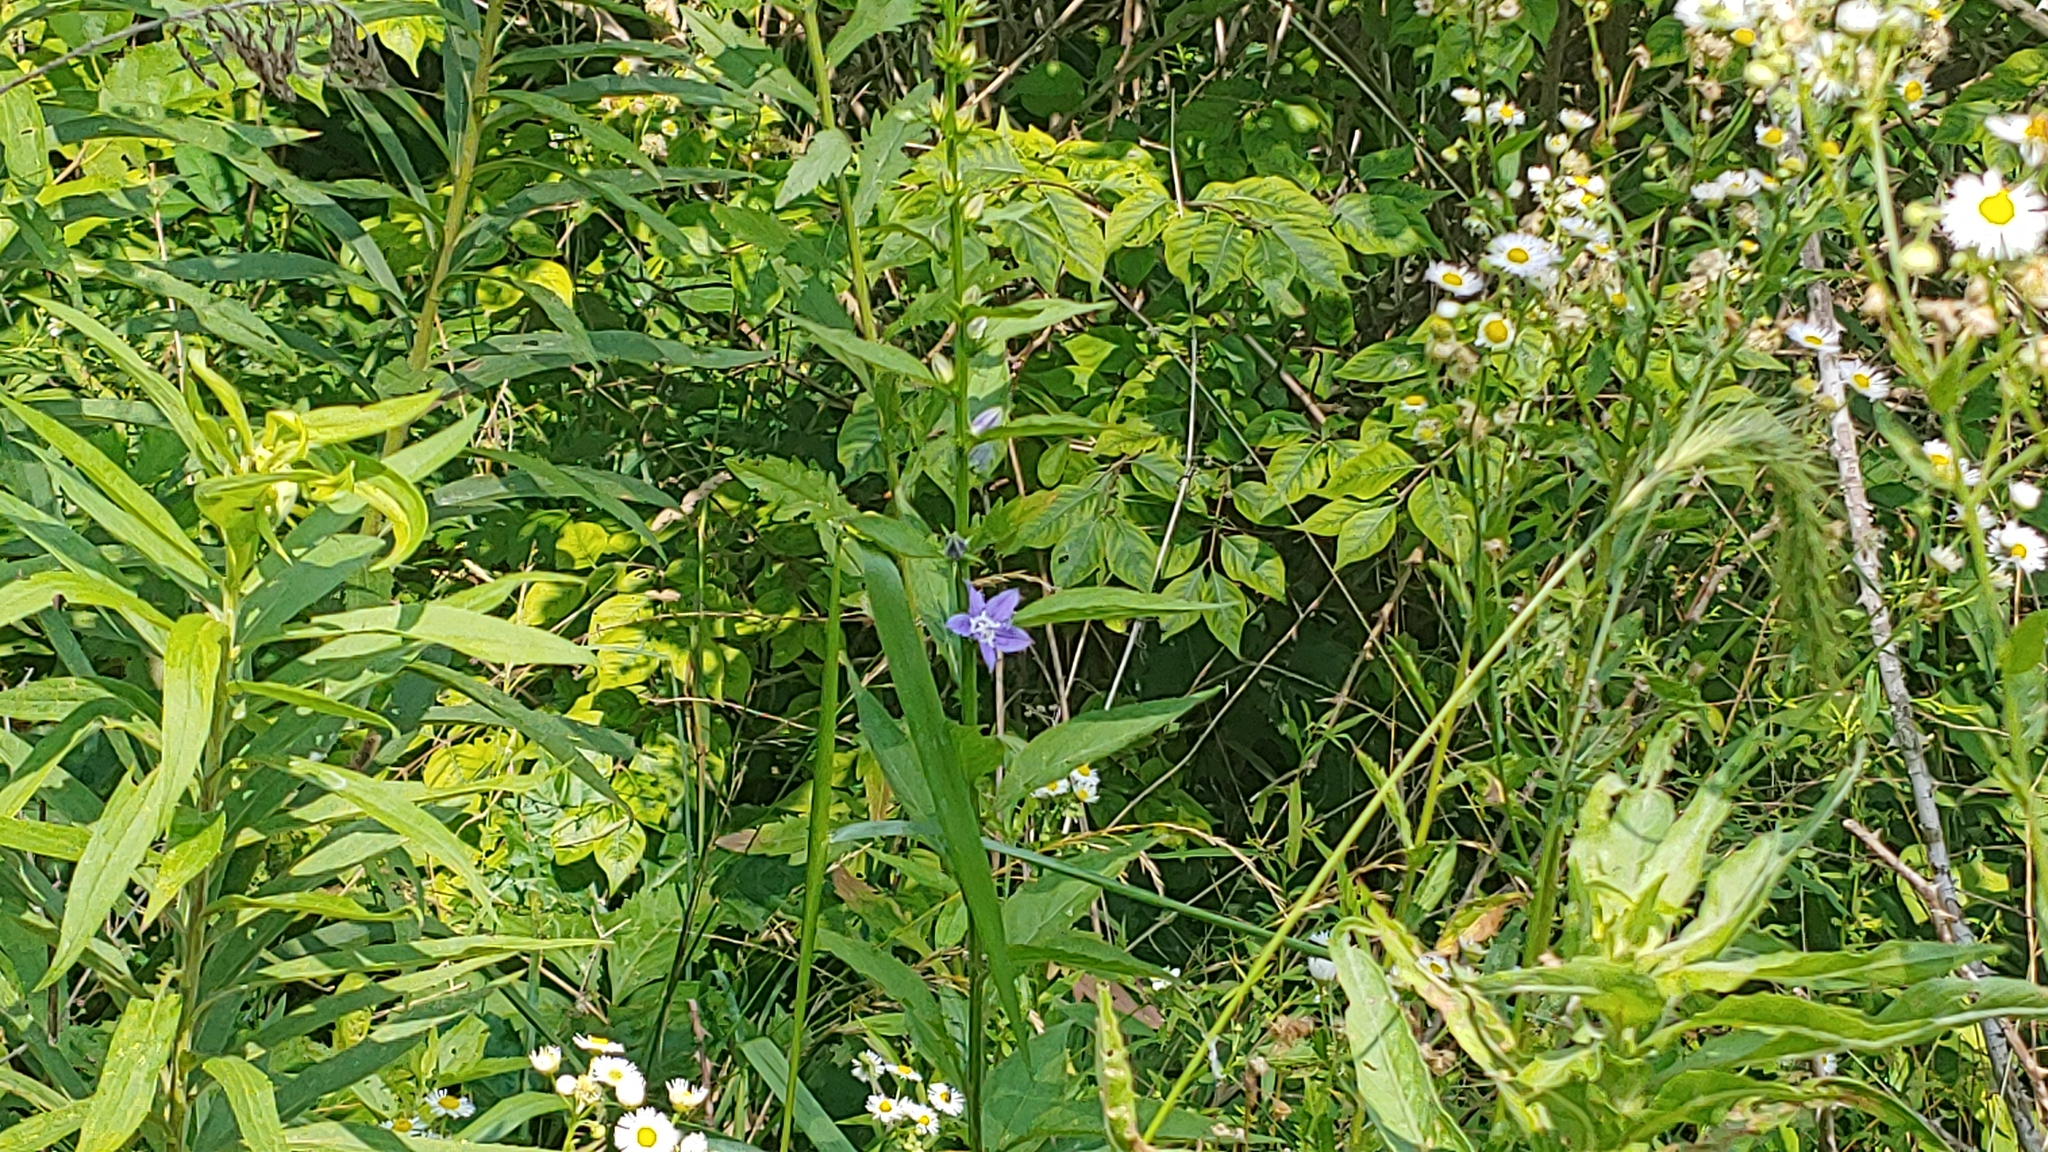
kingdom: Plantae
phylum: Tracheophyta
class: Magnoliopsida
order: Asterales
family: Campanulaceae
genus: Campanulastrum
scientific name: Campanulastrum americanum
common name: American bellflower
